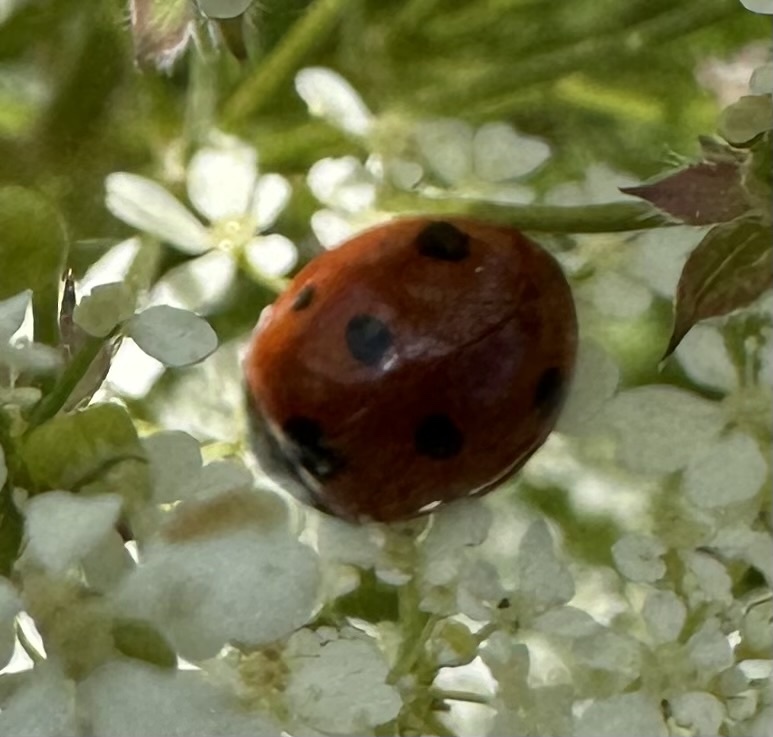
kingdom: Animalia
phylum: Arthropoda
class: Insecta
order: Coleoptera
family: Coccinellidae
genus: Coccinella
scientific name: Coccinella septempunctata
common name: Sevenspotted lady beetle
